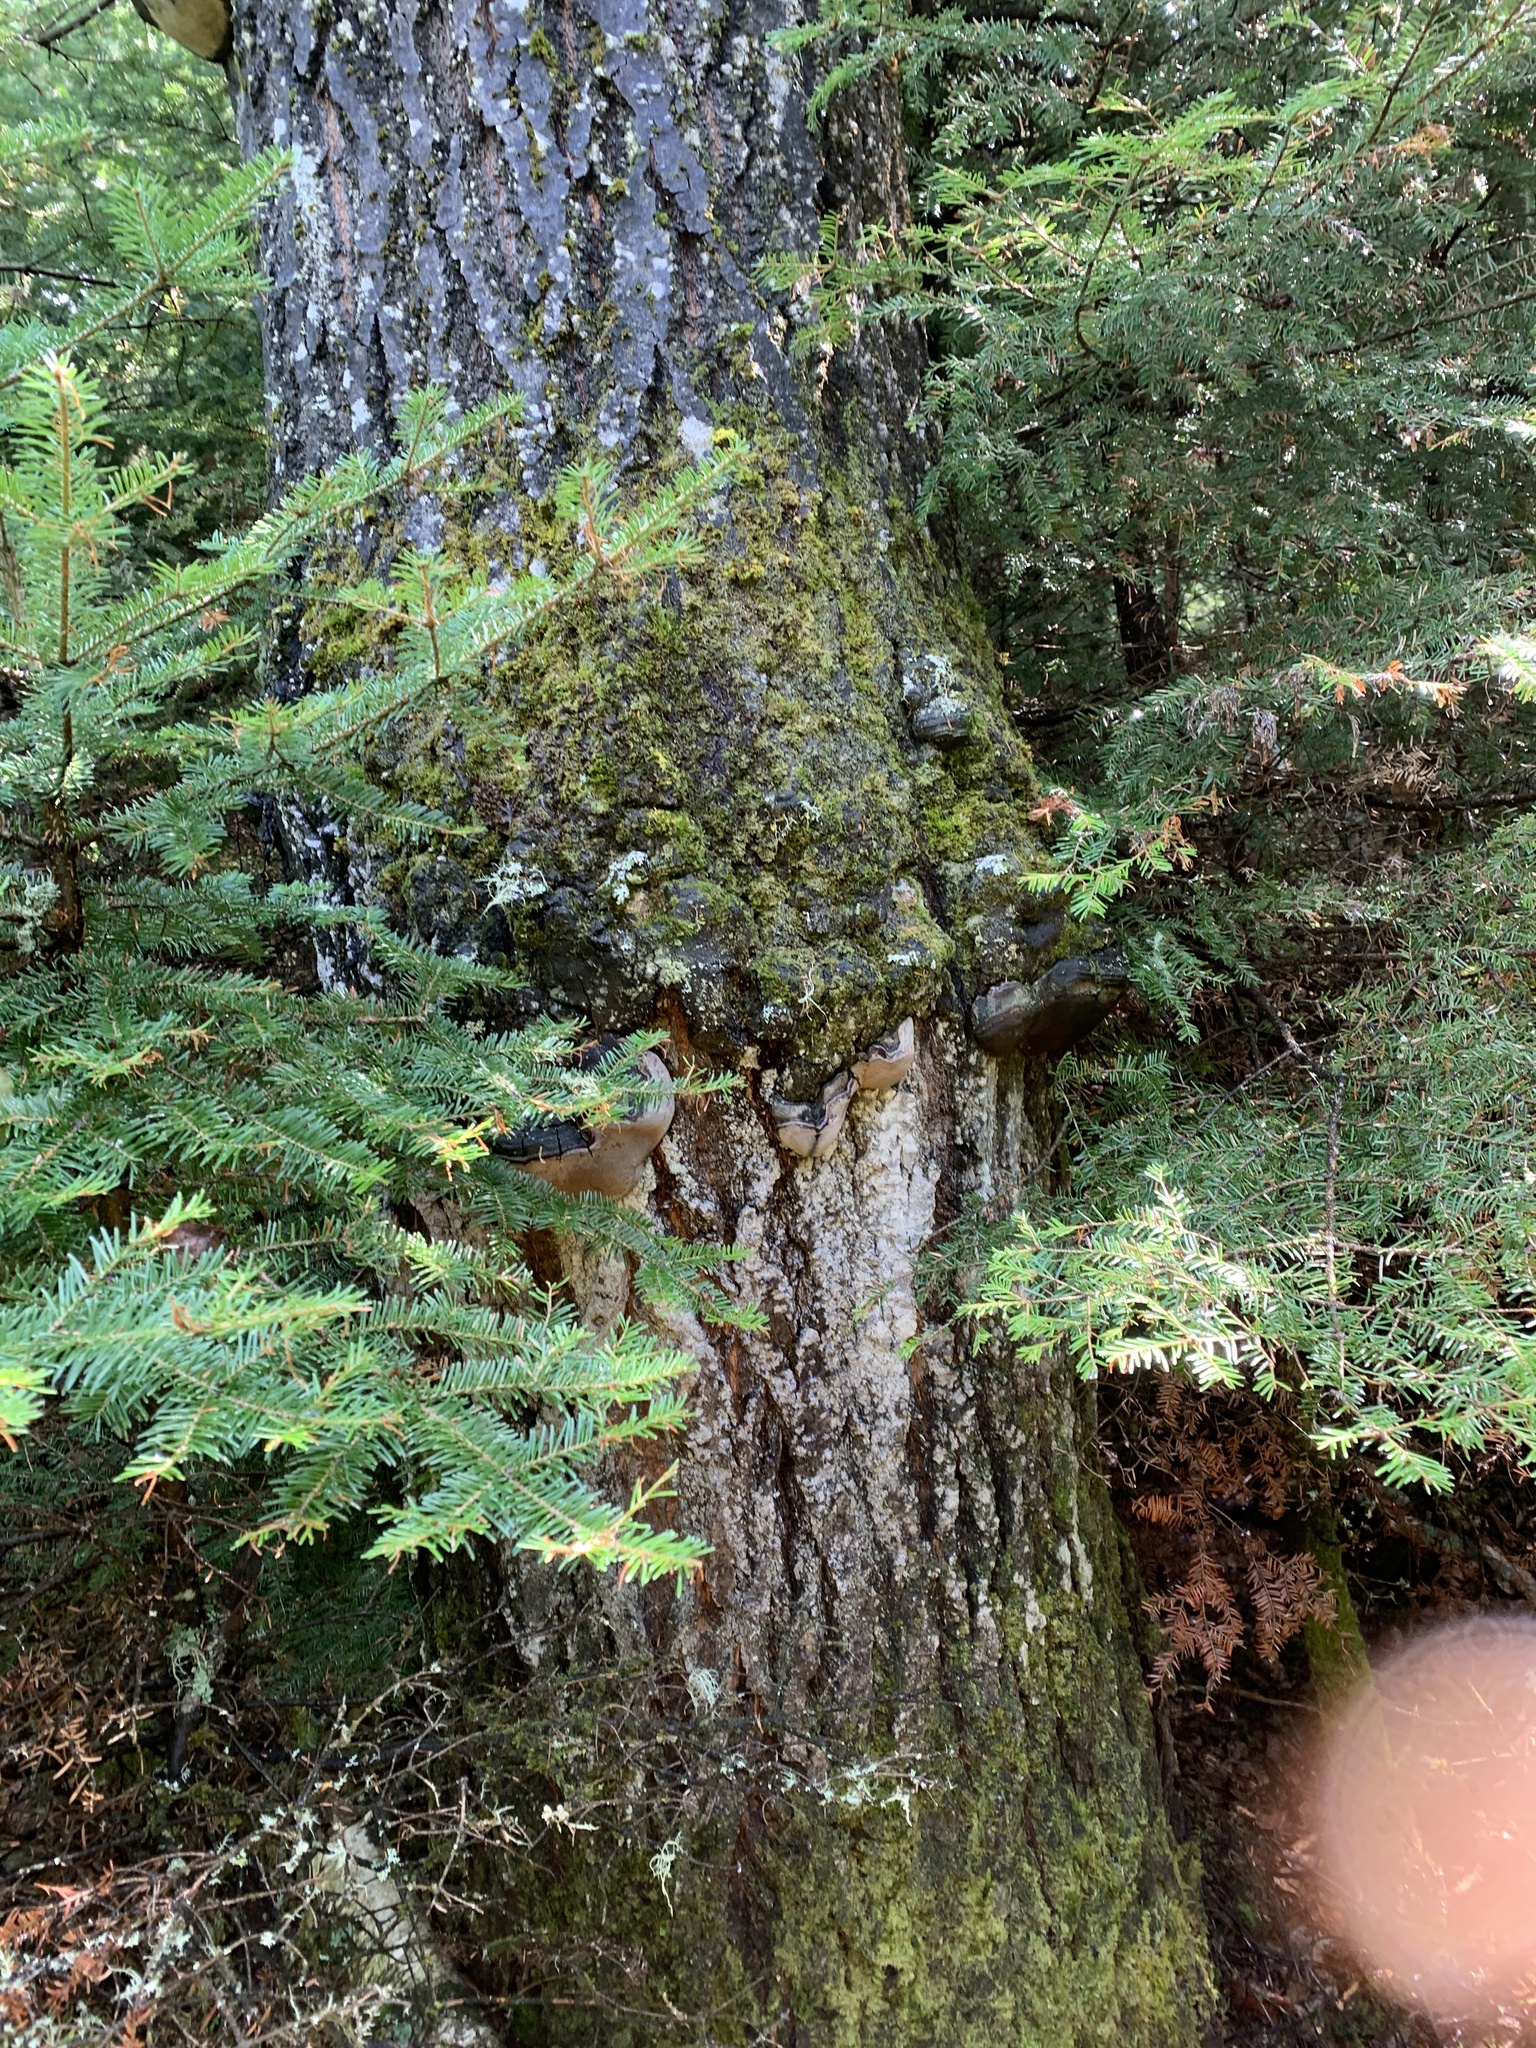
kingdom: Plantae
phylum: Tracheophyta
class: Magnoliopsida
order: Malpighiales
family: Salicaceae
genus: Populus
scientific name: Populus tremuloides
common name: Quaking aspen
